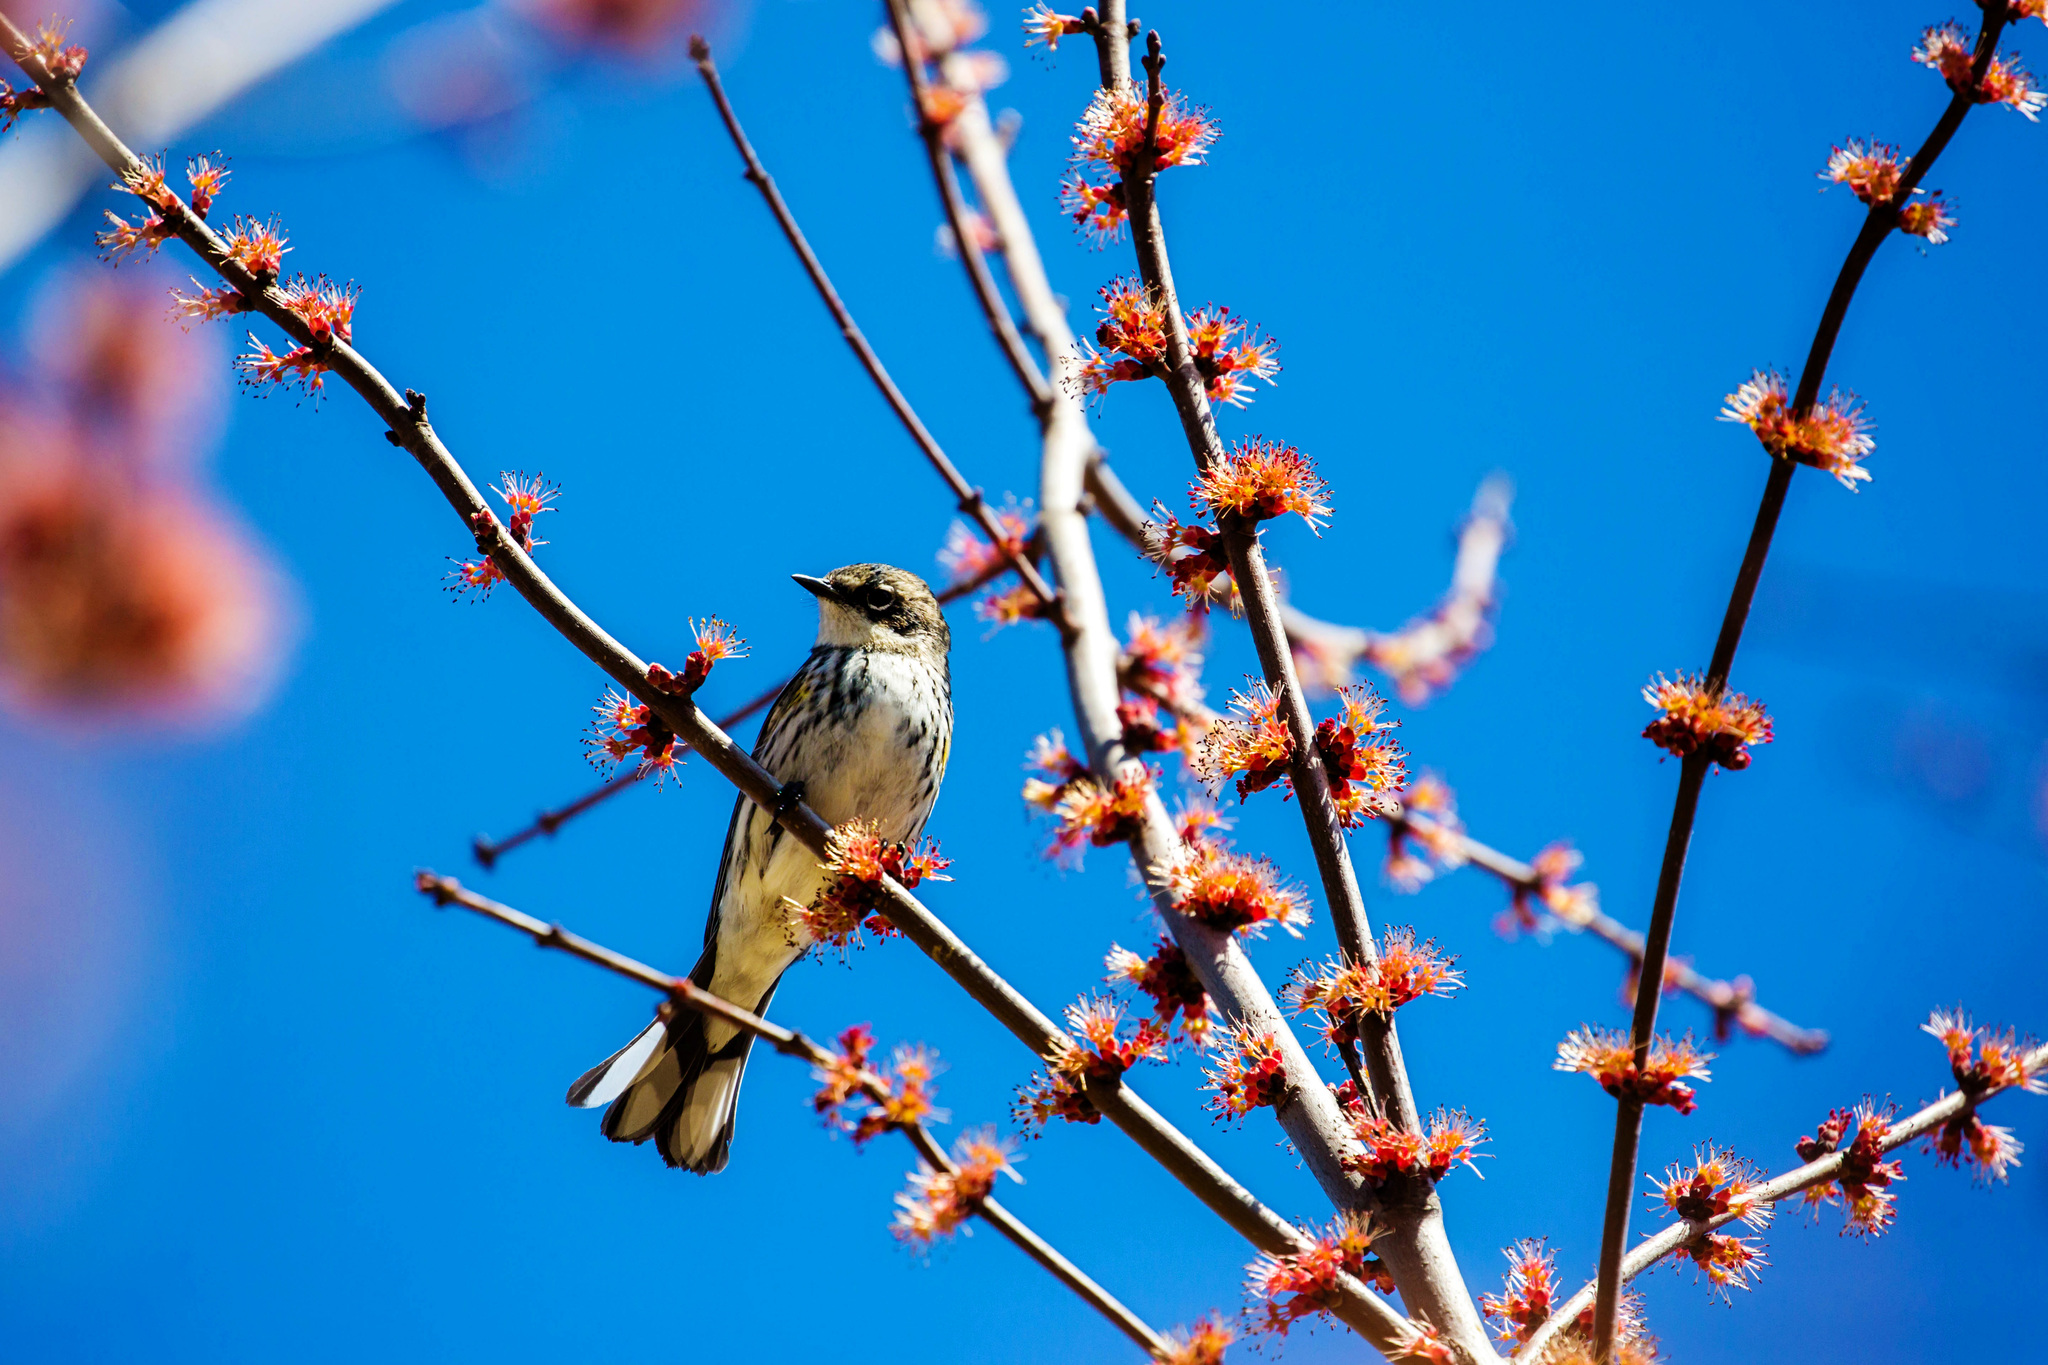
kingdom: Animalia
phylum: Chordata
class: Aves
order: Passeriformes
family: Parulidae
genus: Setophaga
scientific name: Setophaga coronata
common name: Myrtle warbler
